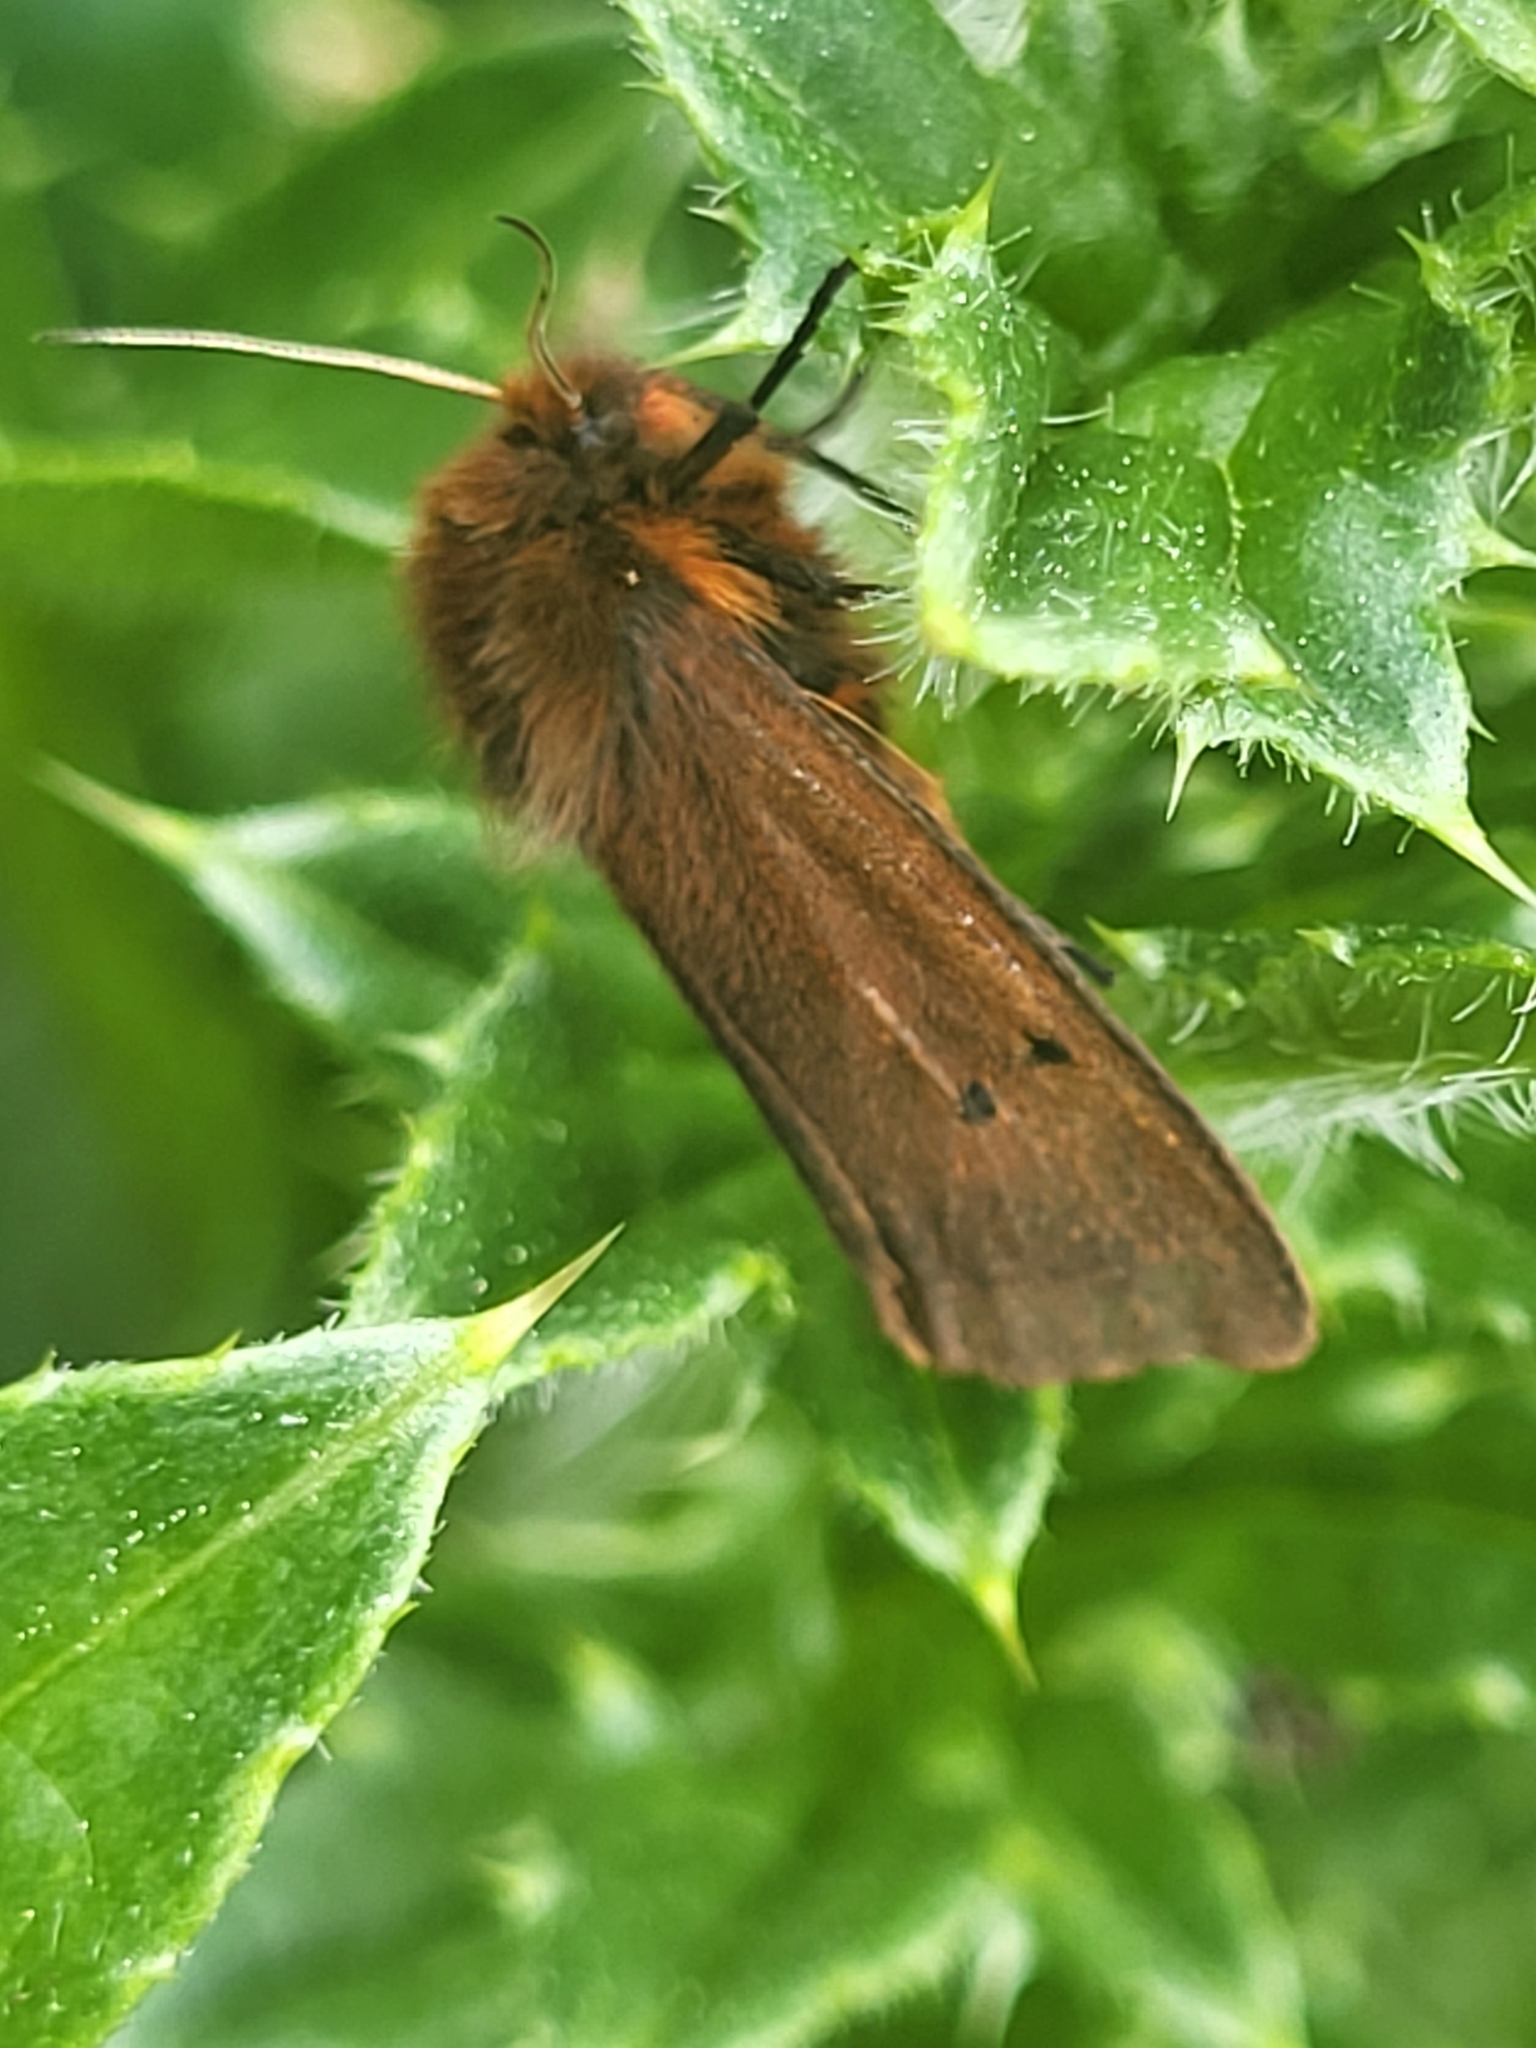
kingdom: Animalia
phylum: Arthropoda
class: Insecta
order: Lepidoptera
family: Erebidae
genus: Phragmatobia
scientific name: Phragmatobia fuliginosa
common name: Ruby tiger
